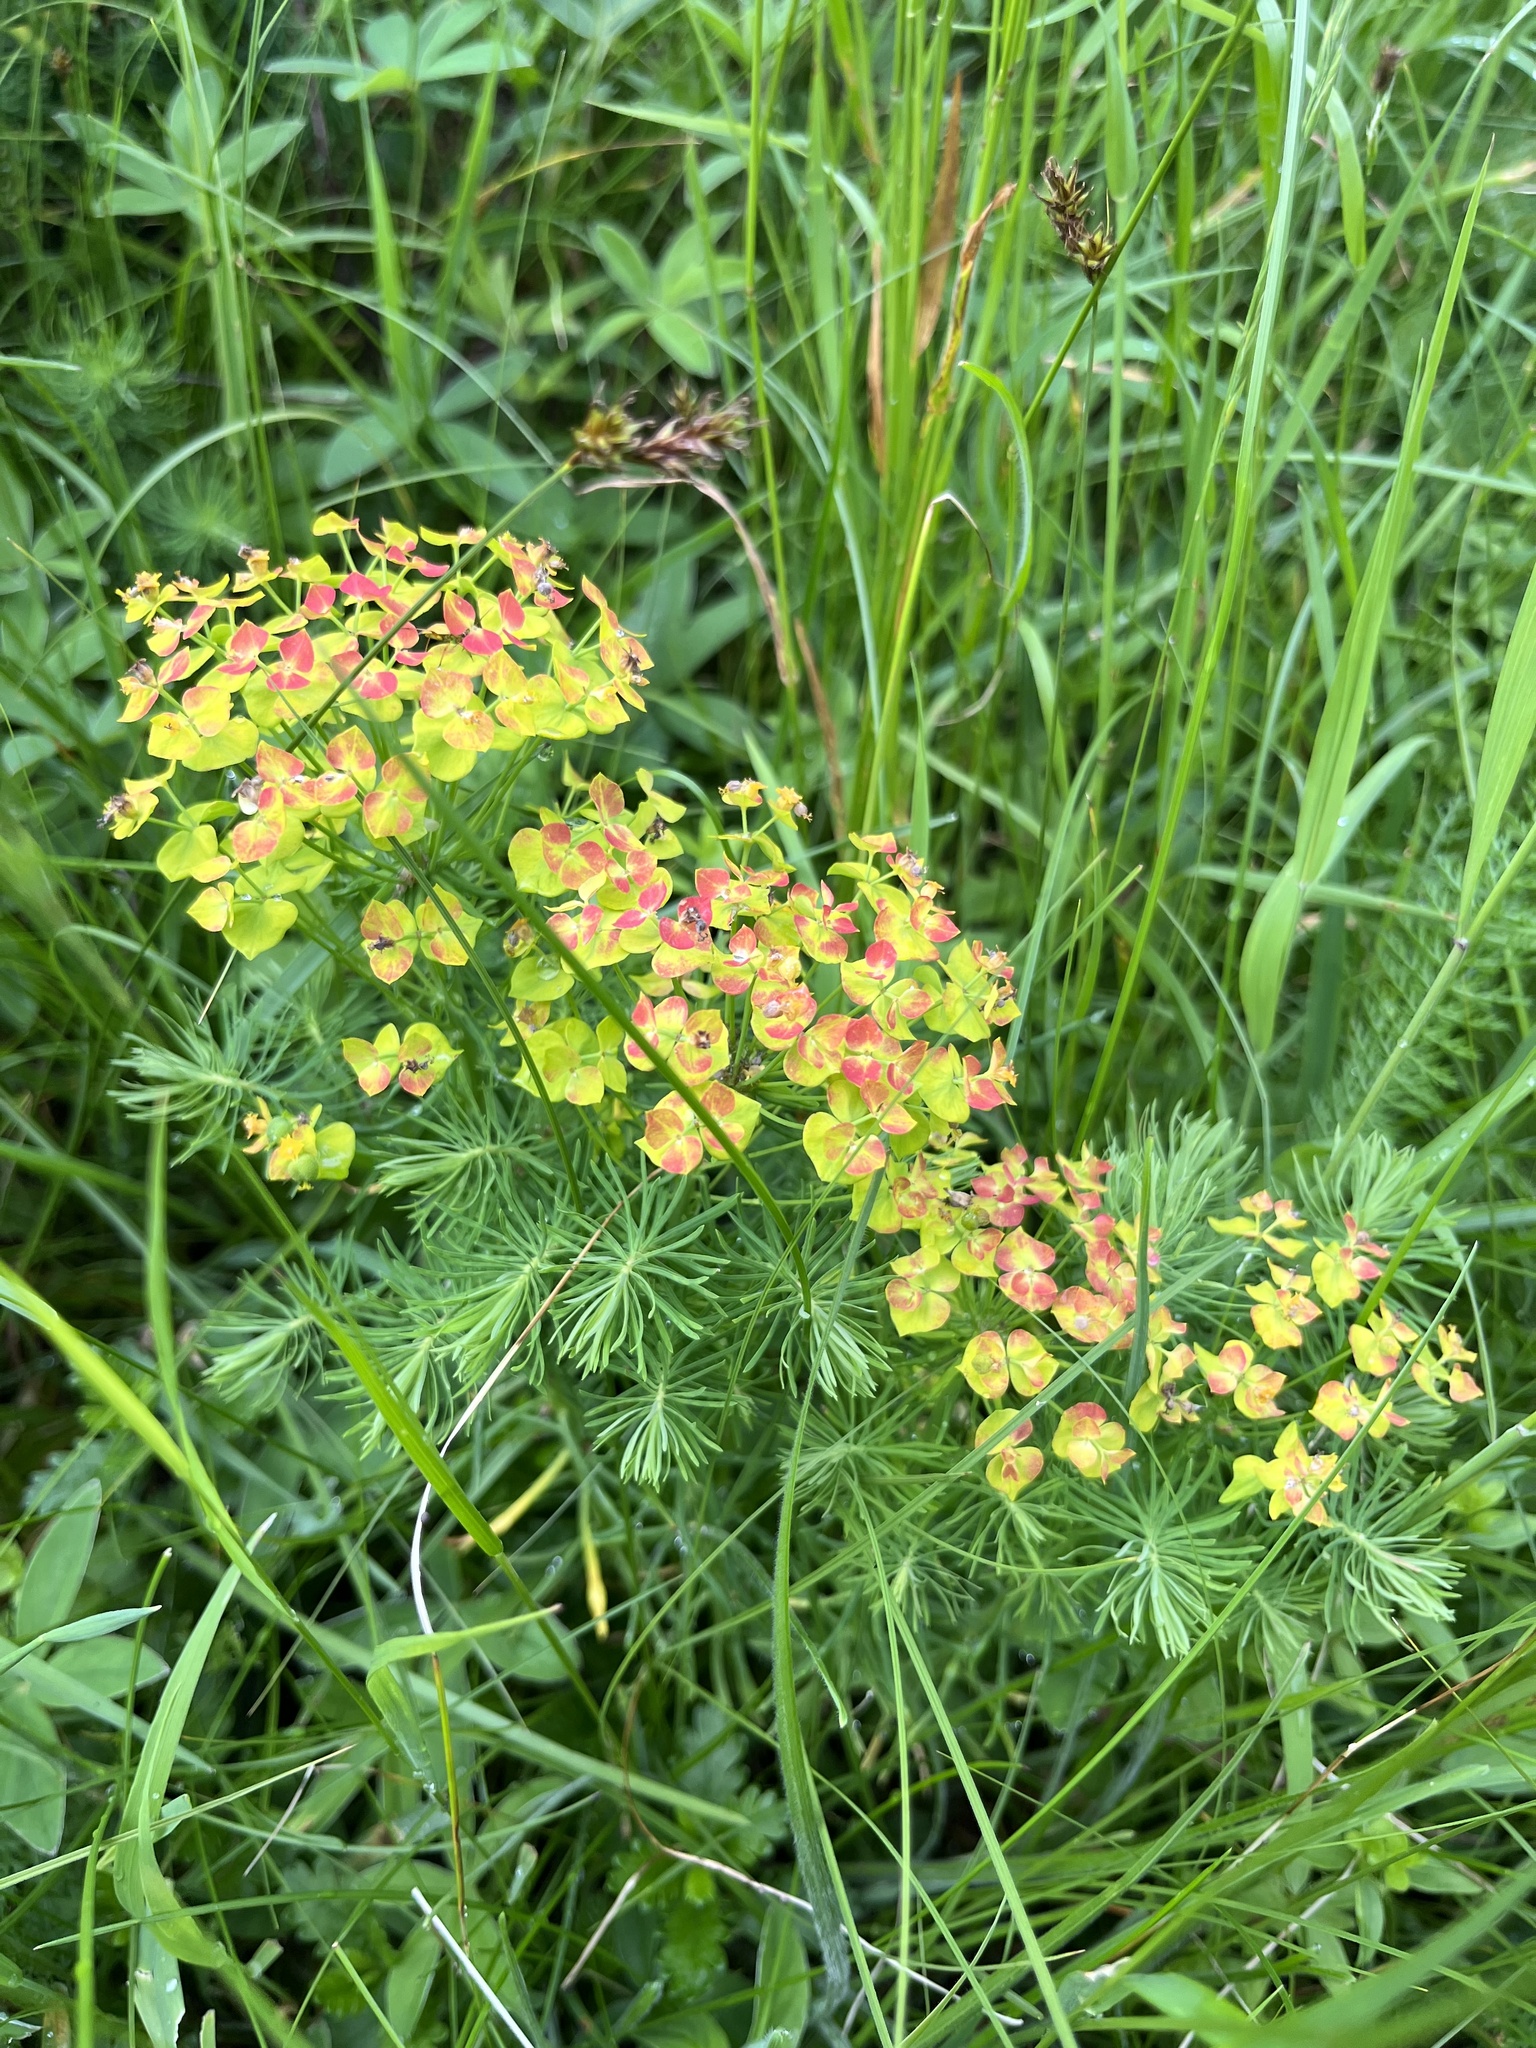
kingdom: Plantae
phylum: Tracheophyta
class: Magnoliopsida
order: Malpighiales
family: Euphorbiaceae
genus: Euphorbia
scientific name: Euphorbia cyparissias
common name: Cypress spurge
